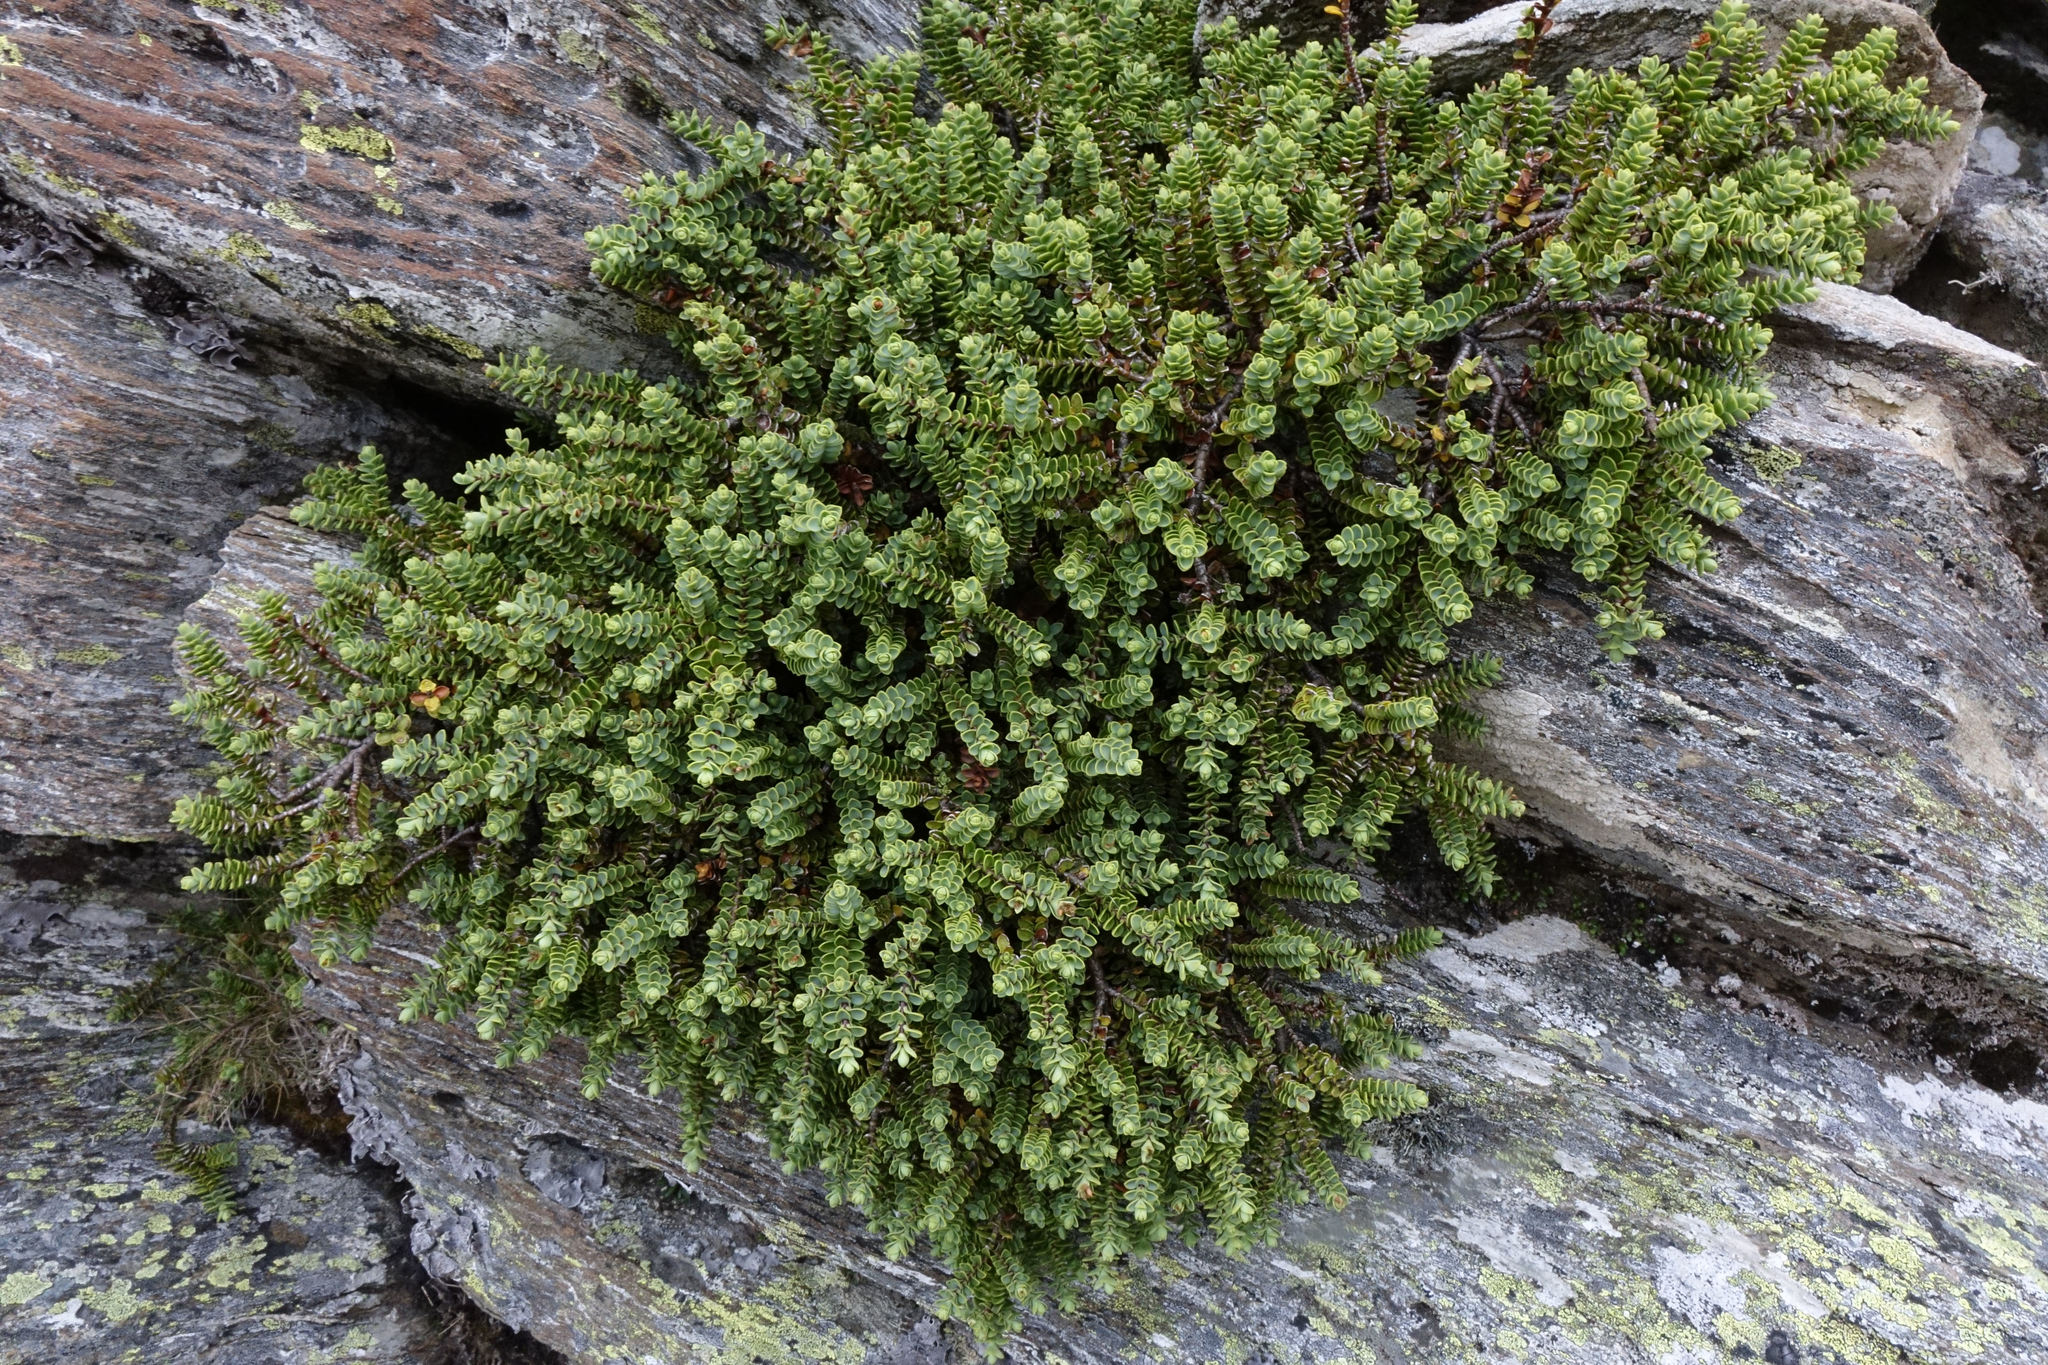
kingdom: Plantae
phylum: Tracheophyta
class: Magnoliopsida
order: Lamiales
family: Plantaginaceae
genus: Veronica
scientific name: Veronica buchananii
